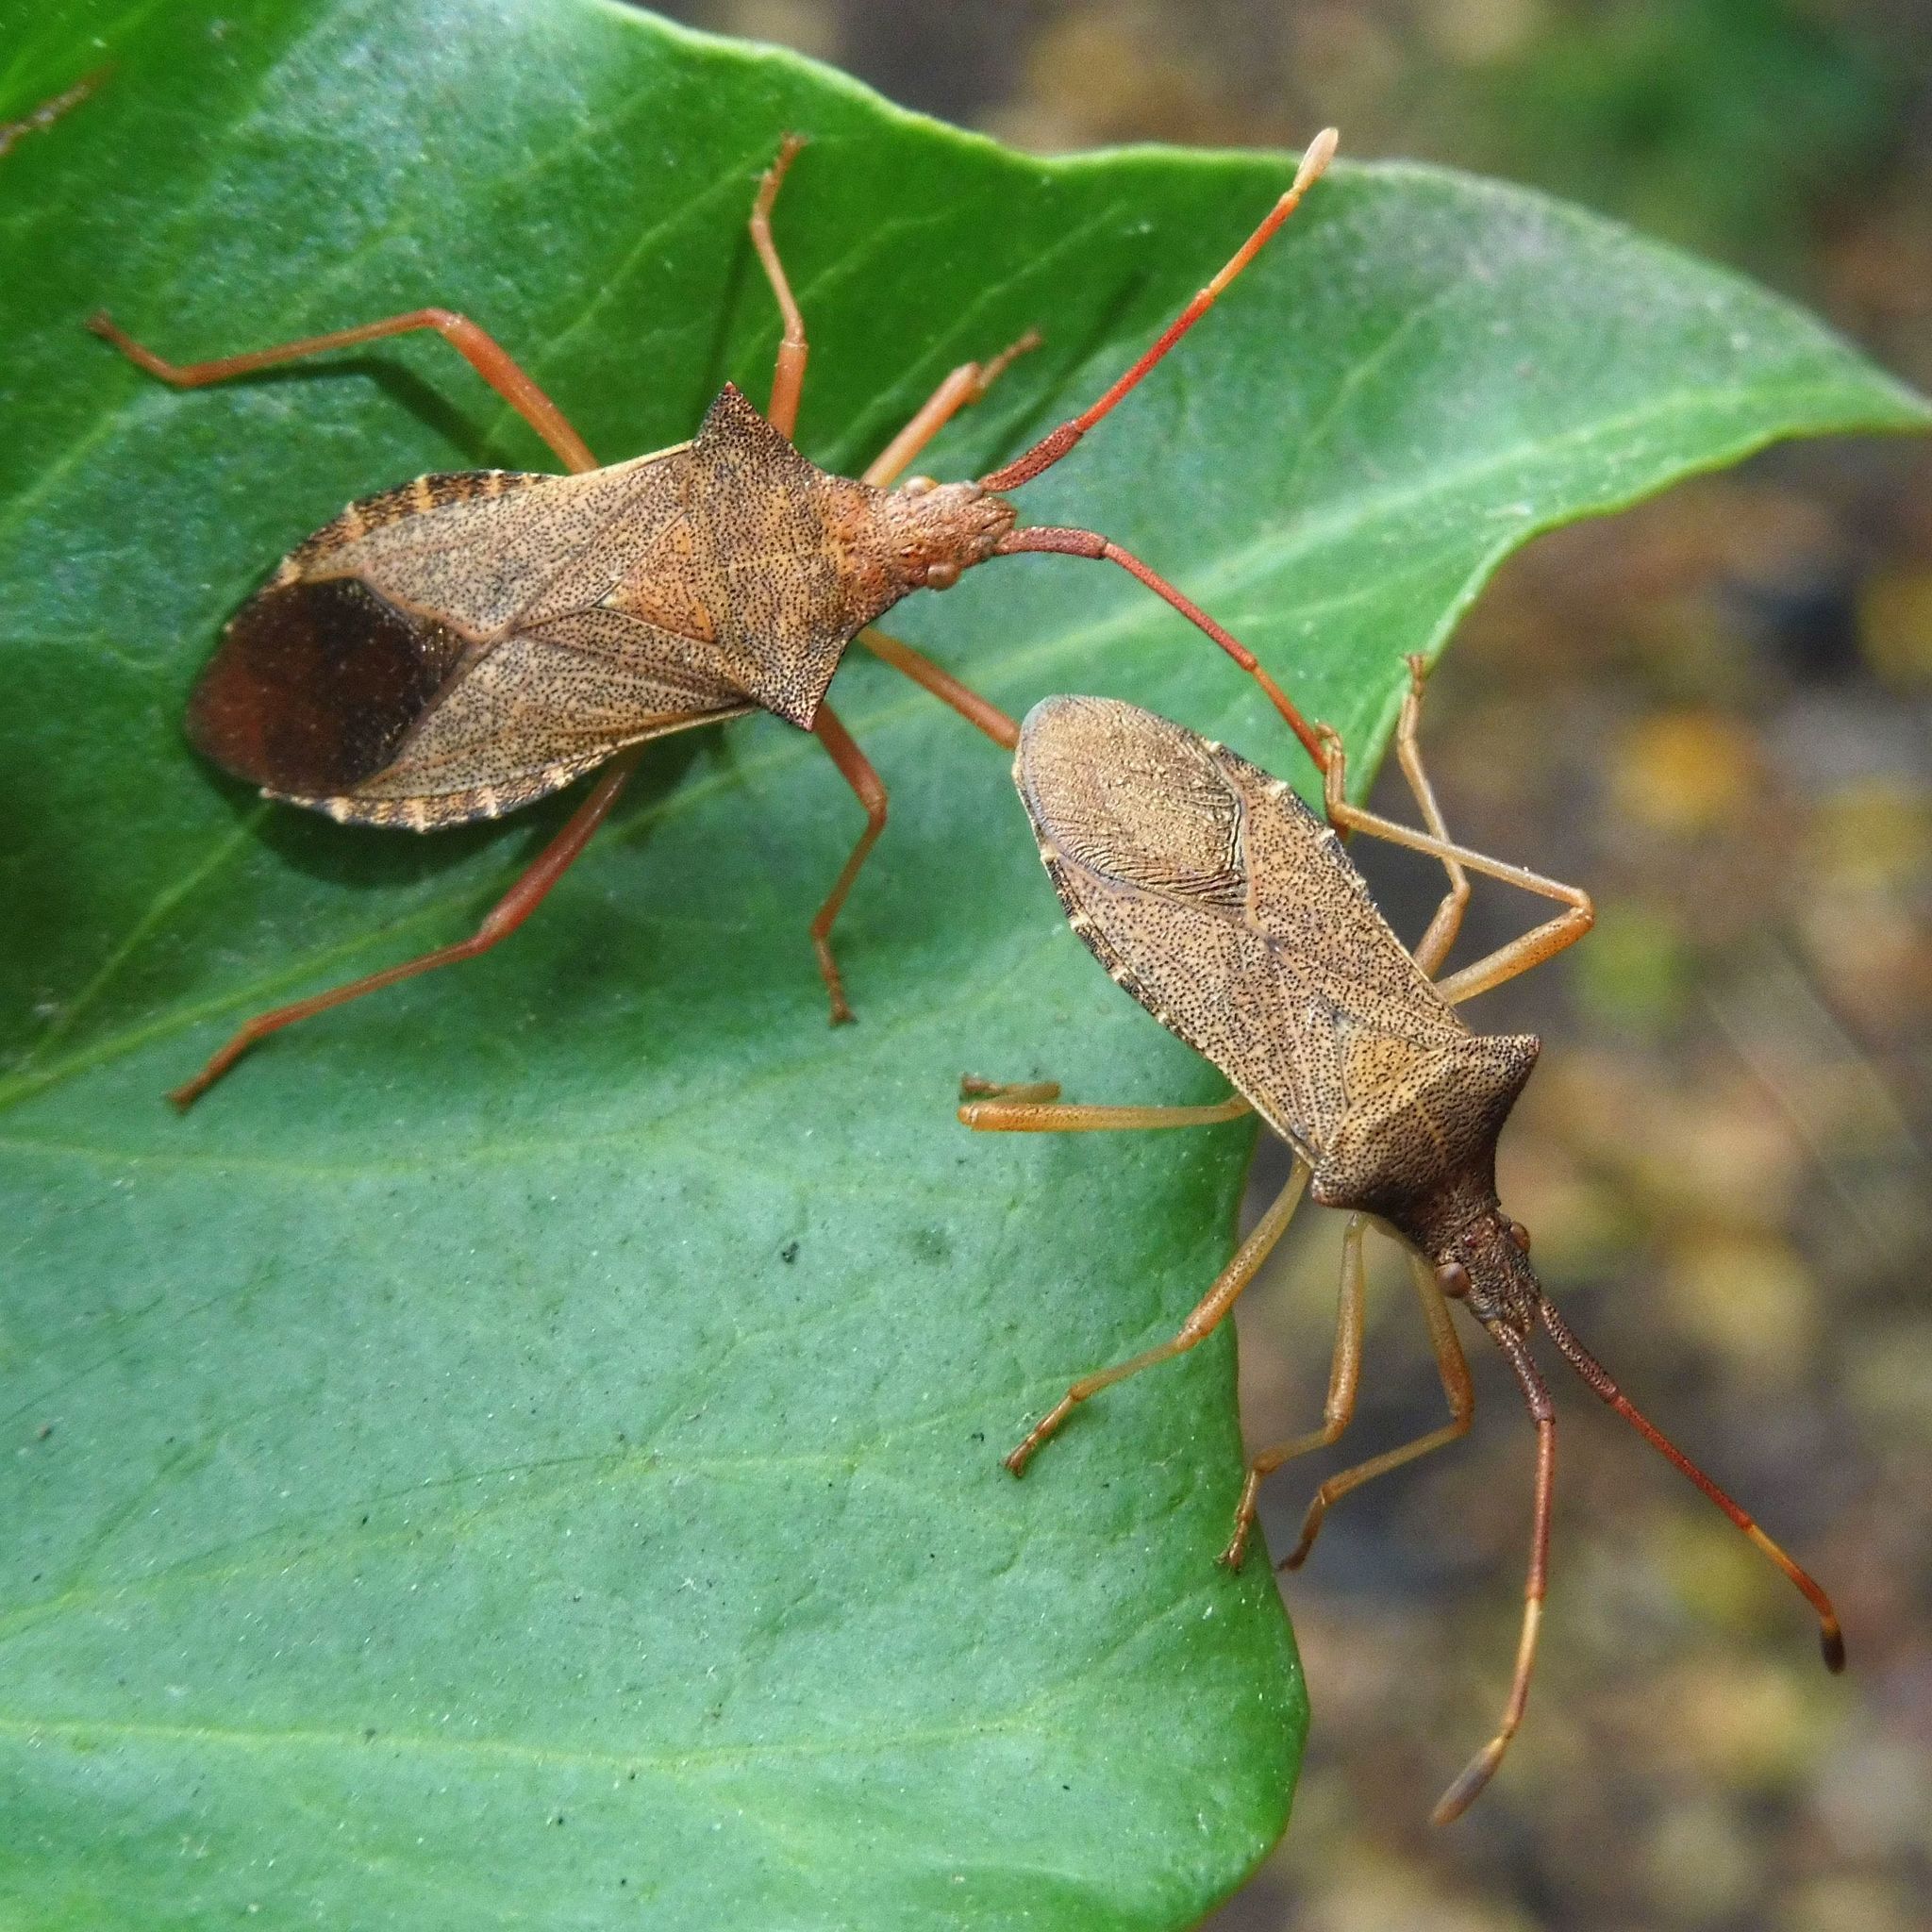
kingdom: Animalia
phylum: Arthropoda
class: Insecta
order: Hemiptera
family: Coreidae
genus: Gonocerus
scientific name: Gonocerus acuteangulatus
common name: Box bug
